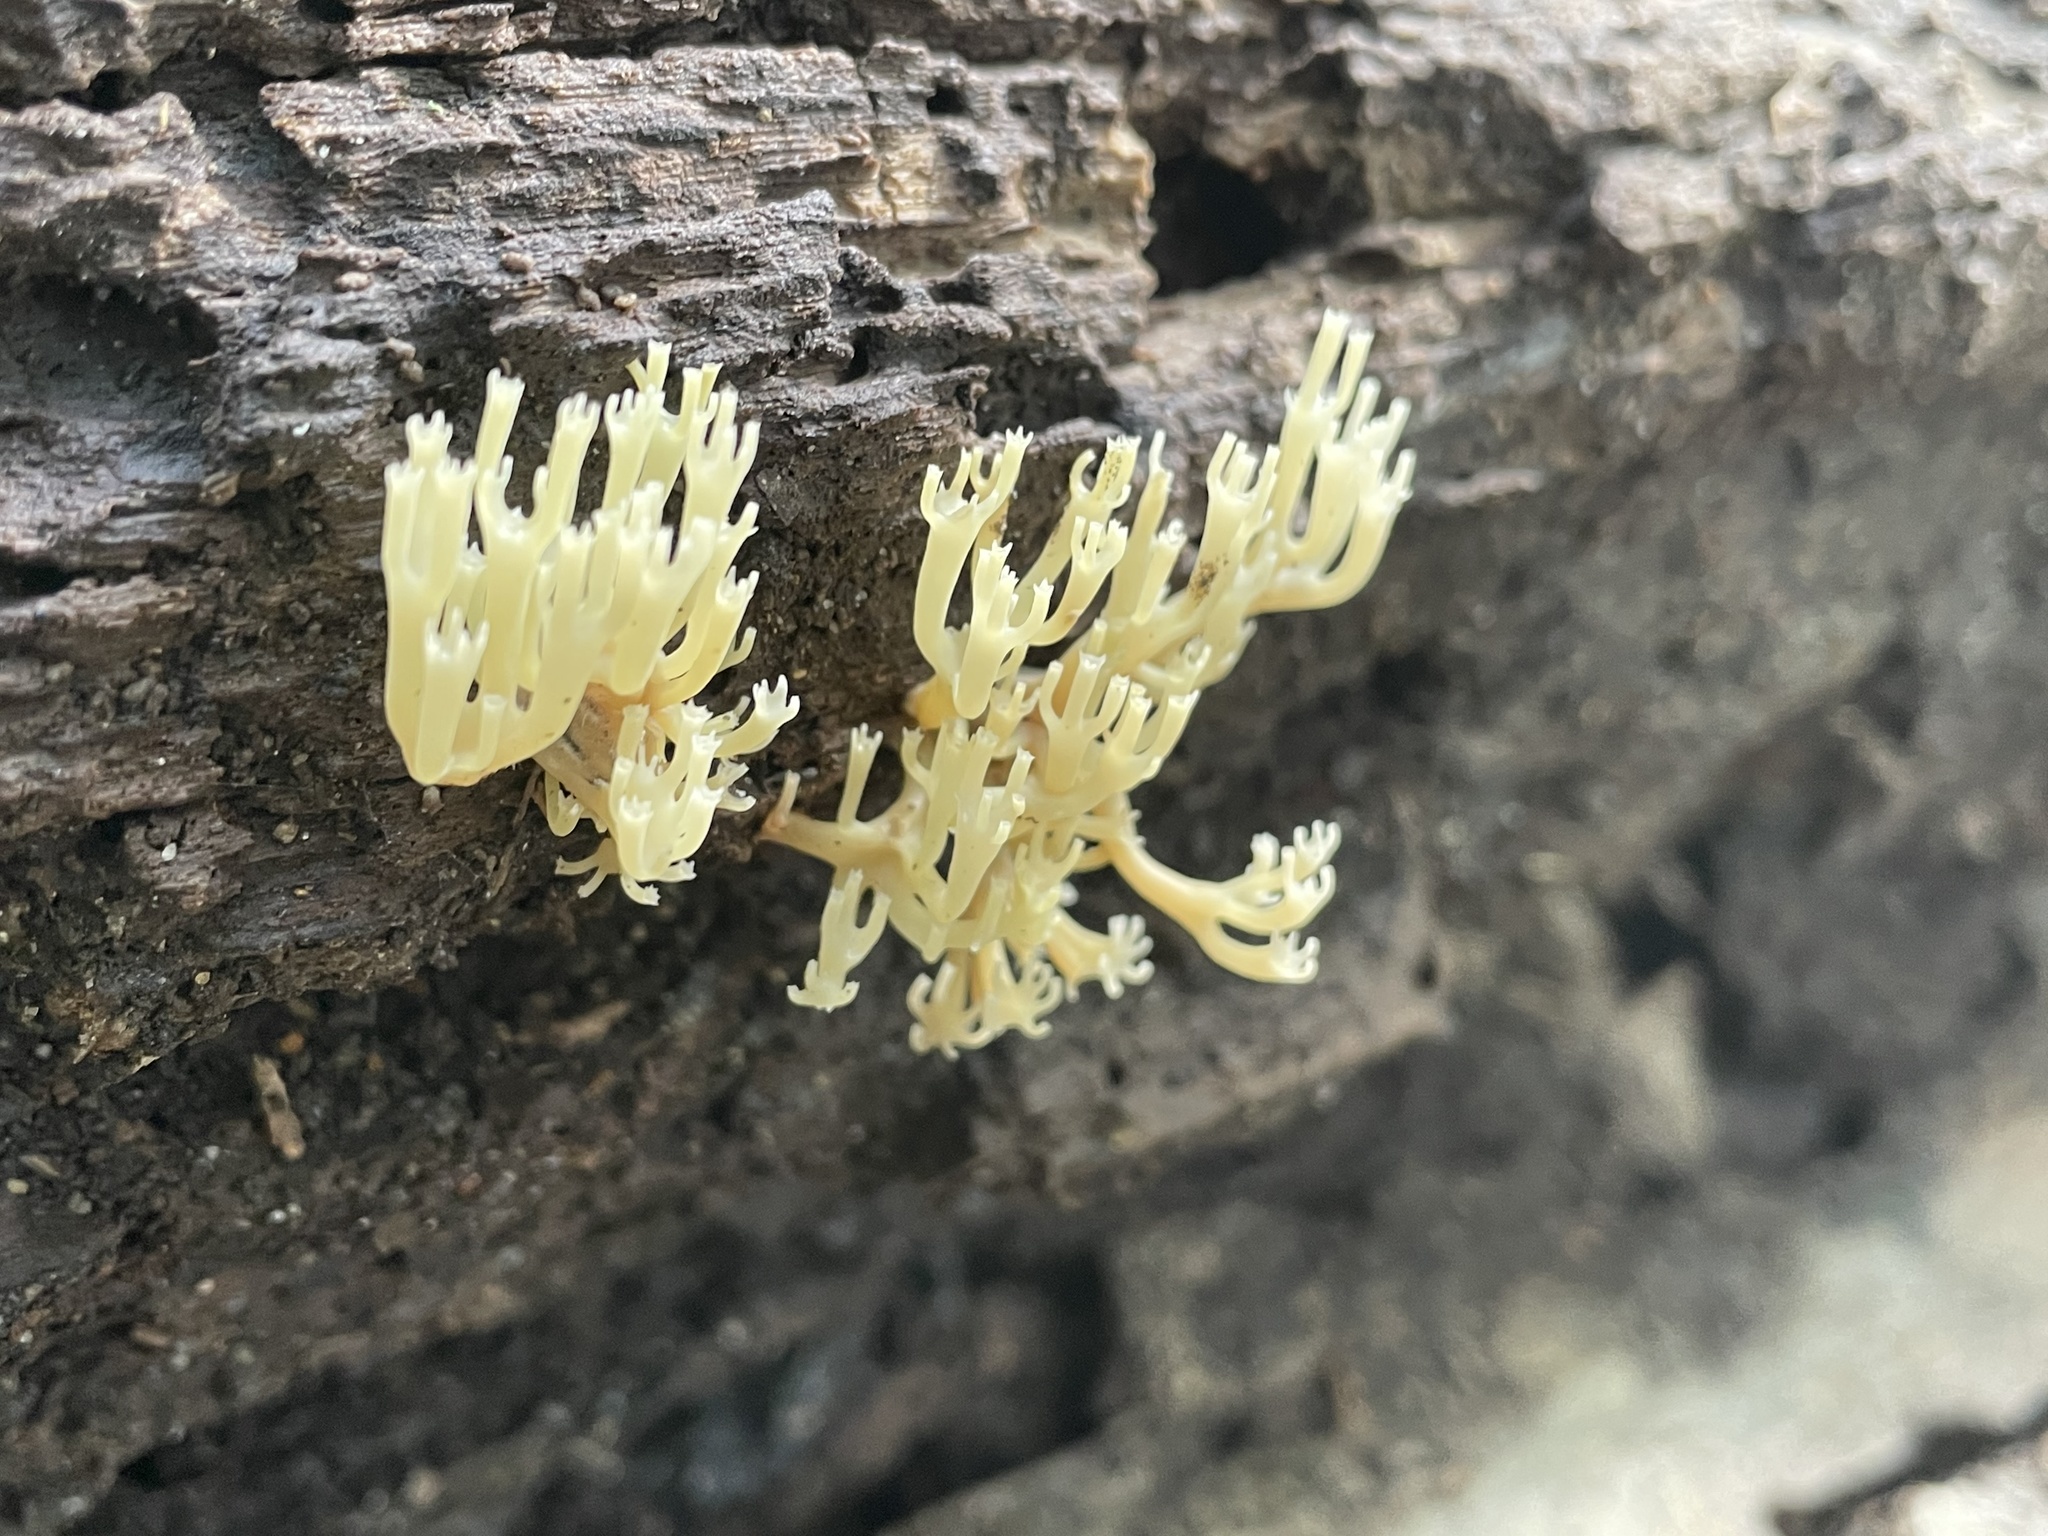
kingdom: Fungi
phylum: Basidiomycota
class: Agaricomycetes
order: Russulales
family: Auriscalpiaceae
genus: Artomyces
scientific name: Artomyces pyxidatus
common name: Crown-tipped coral fungus
